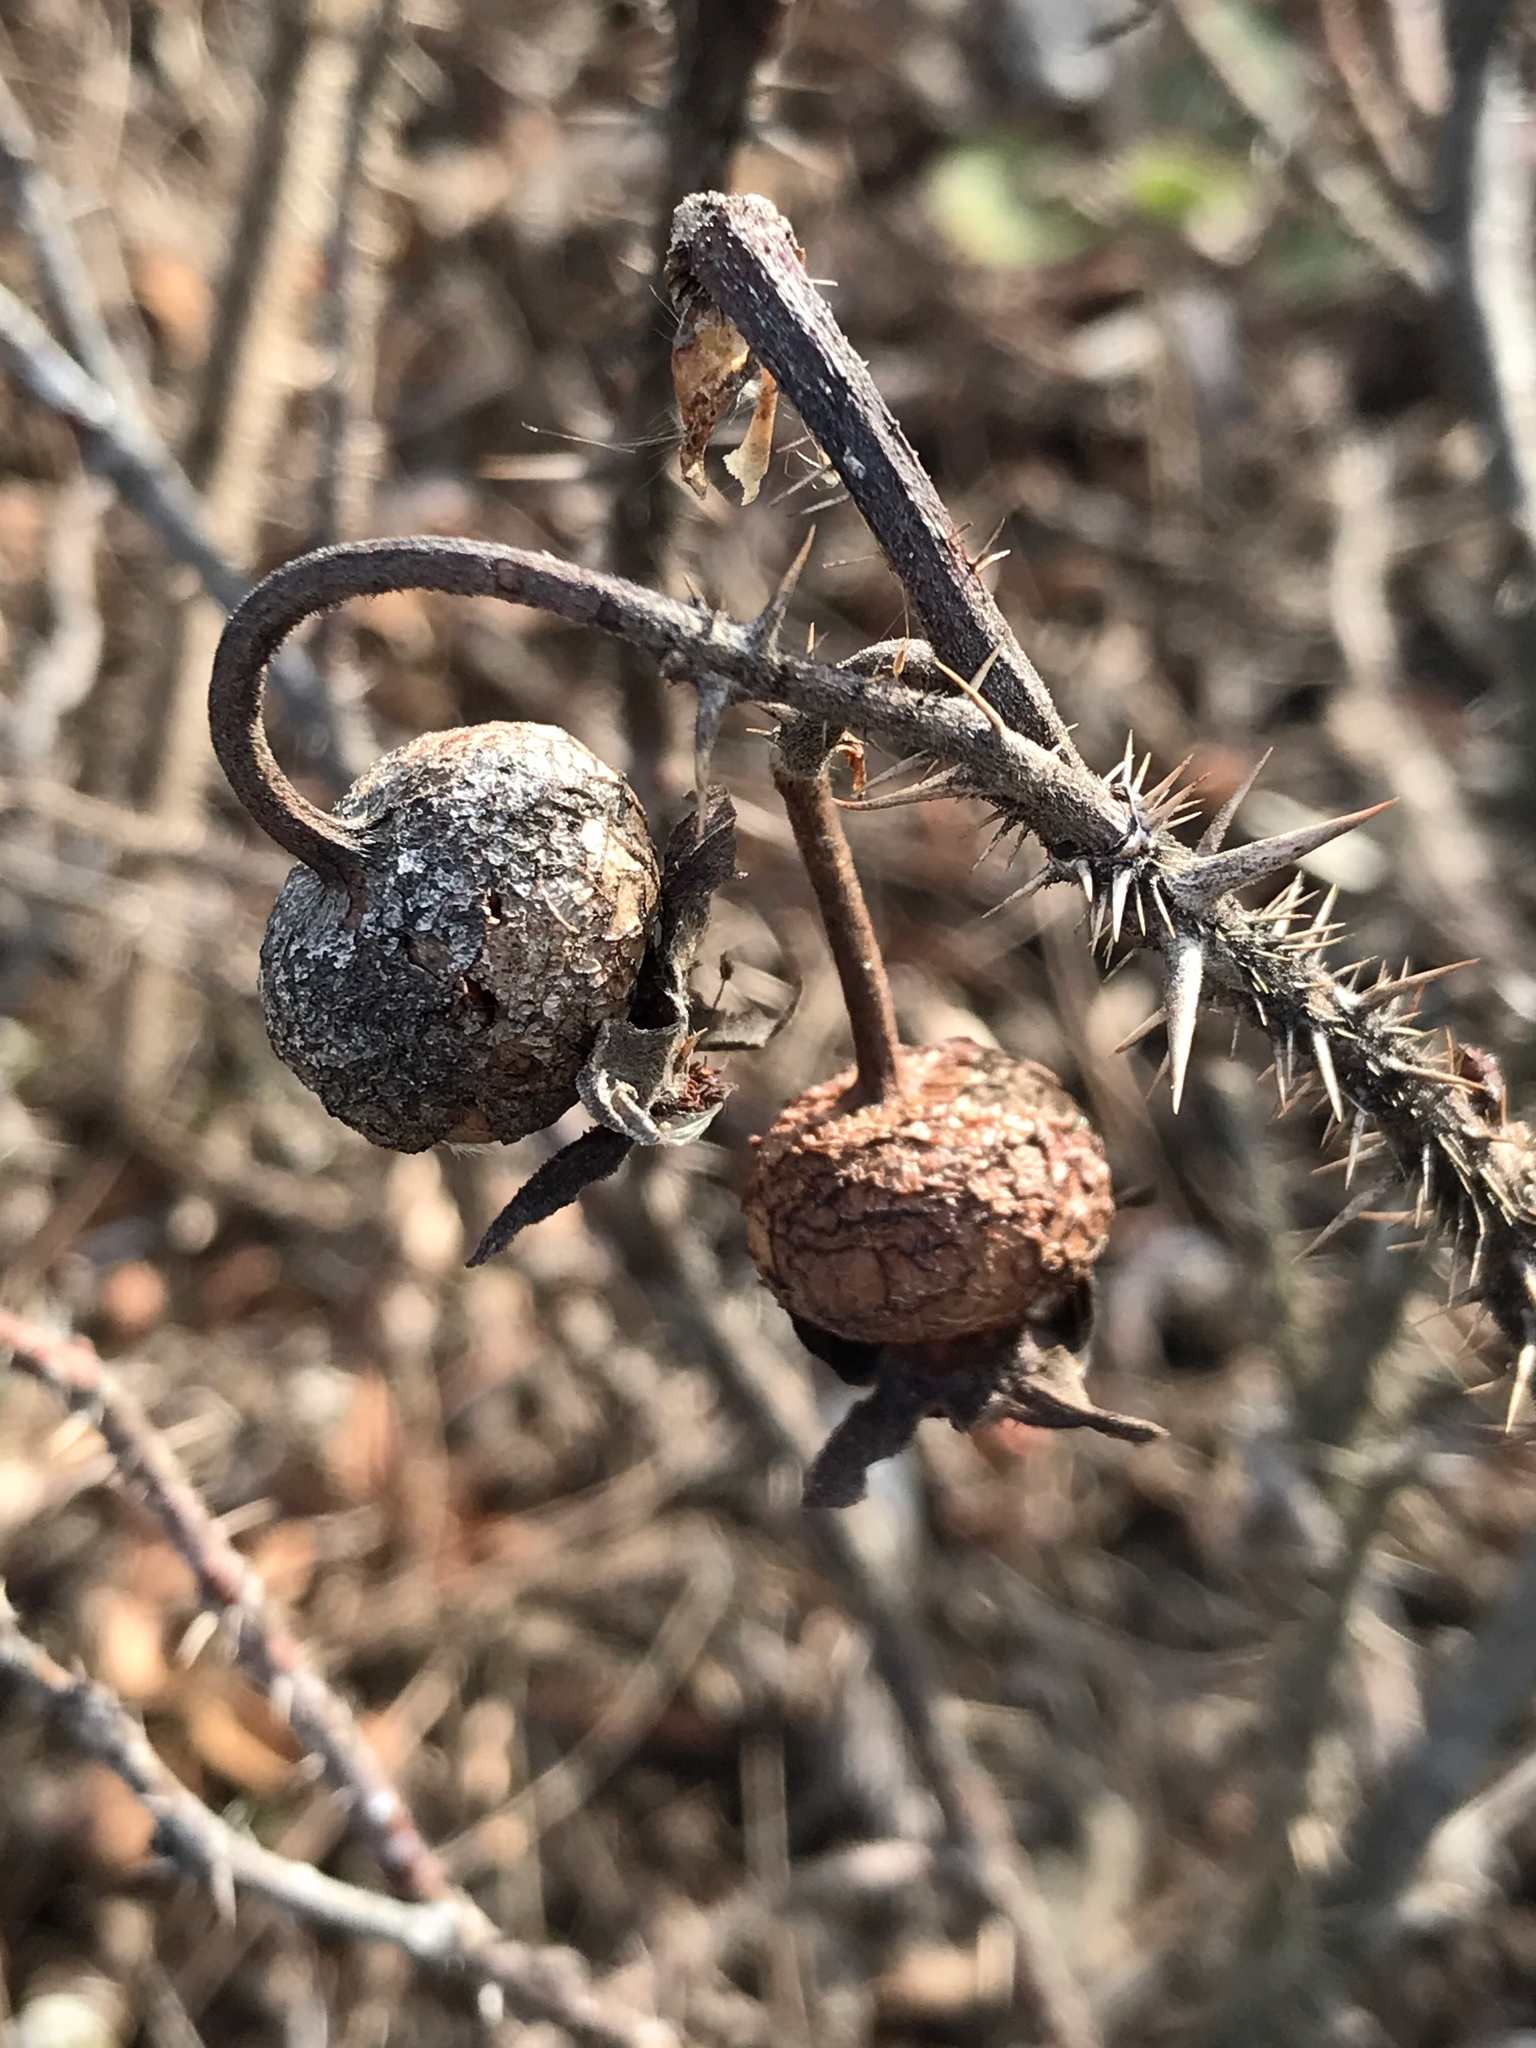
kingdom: Plantae
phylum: Tracheophyta
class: Magnoliopsida
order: Rosales
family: Rosaceae
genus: Rosa
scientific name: Rosa rugosa
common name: Japanese rose
